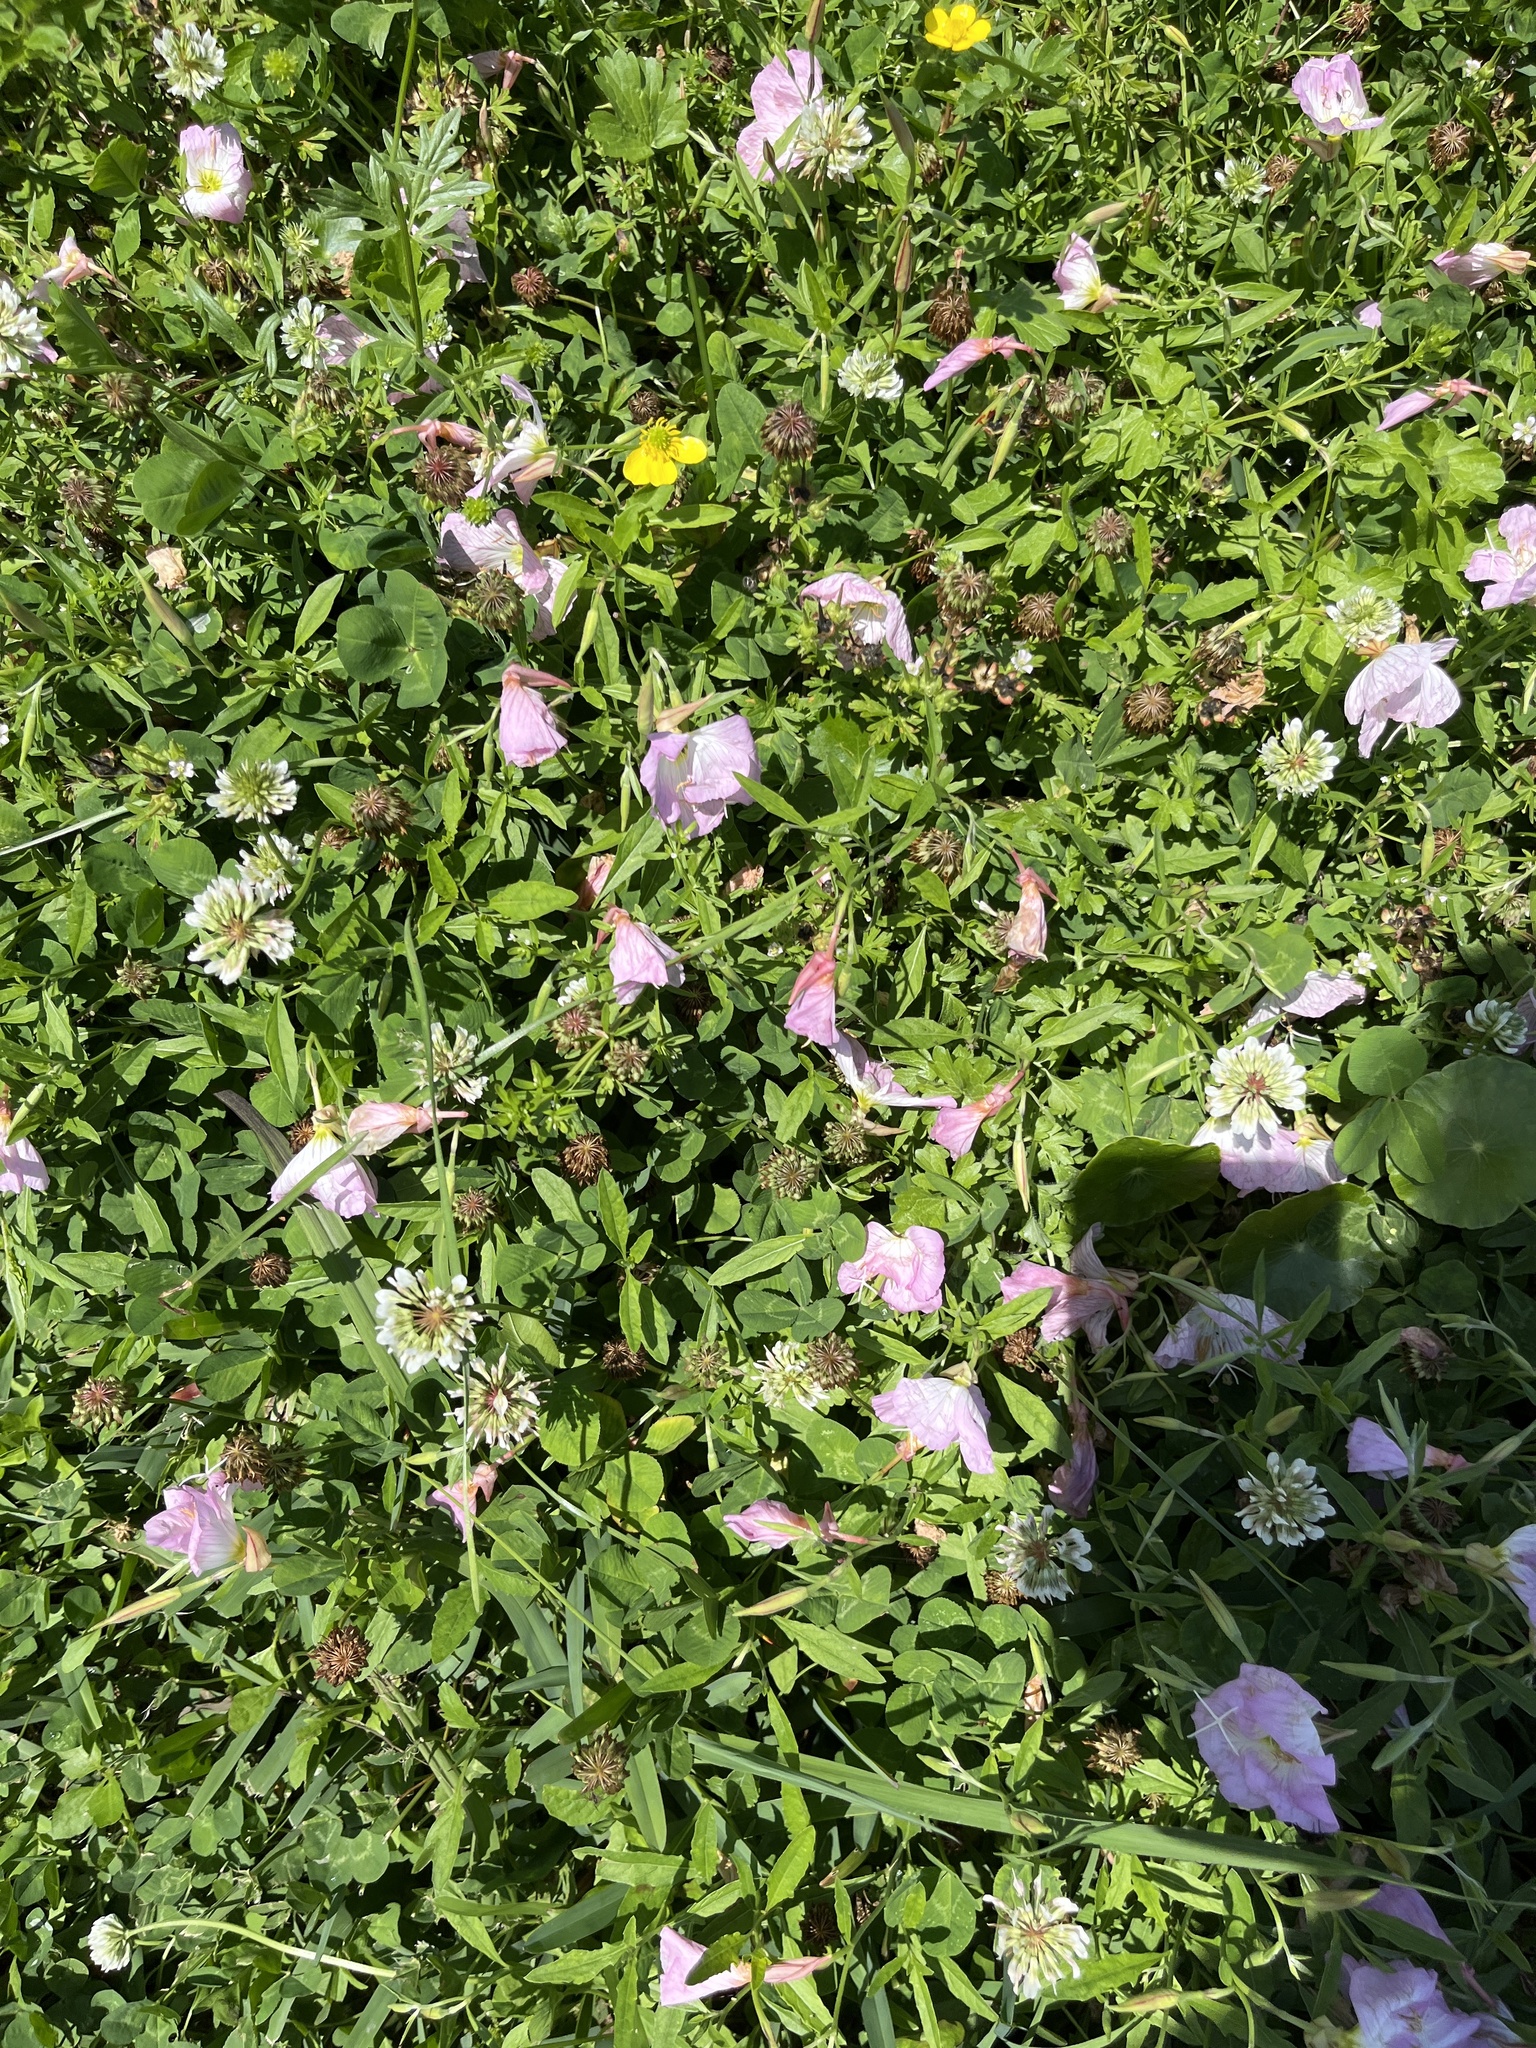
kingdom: Plantae
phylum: Tracheophyta
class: Magnoliopsida
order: Myrtales
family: Onagraceae
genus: Oenothera
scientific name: Oenothera speciosa
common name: White evening-primrose
